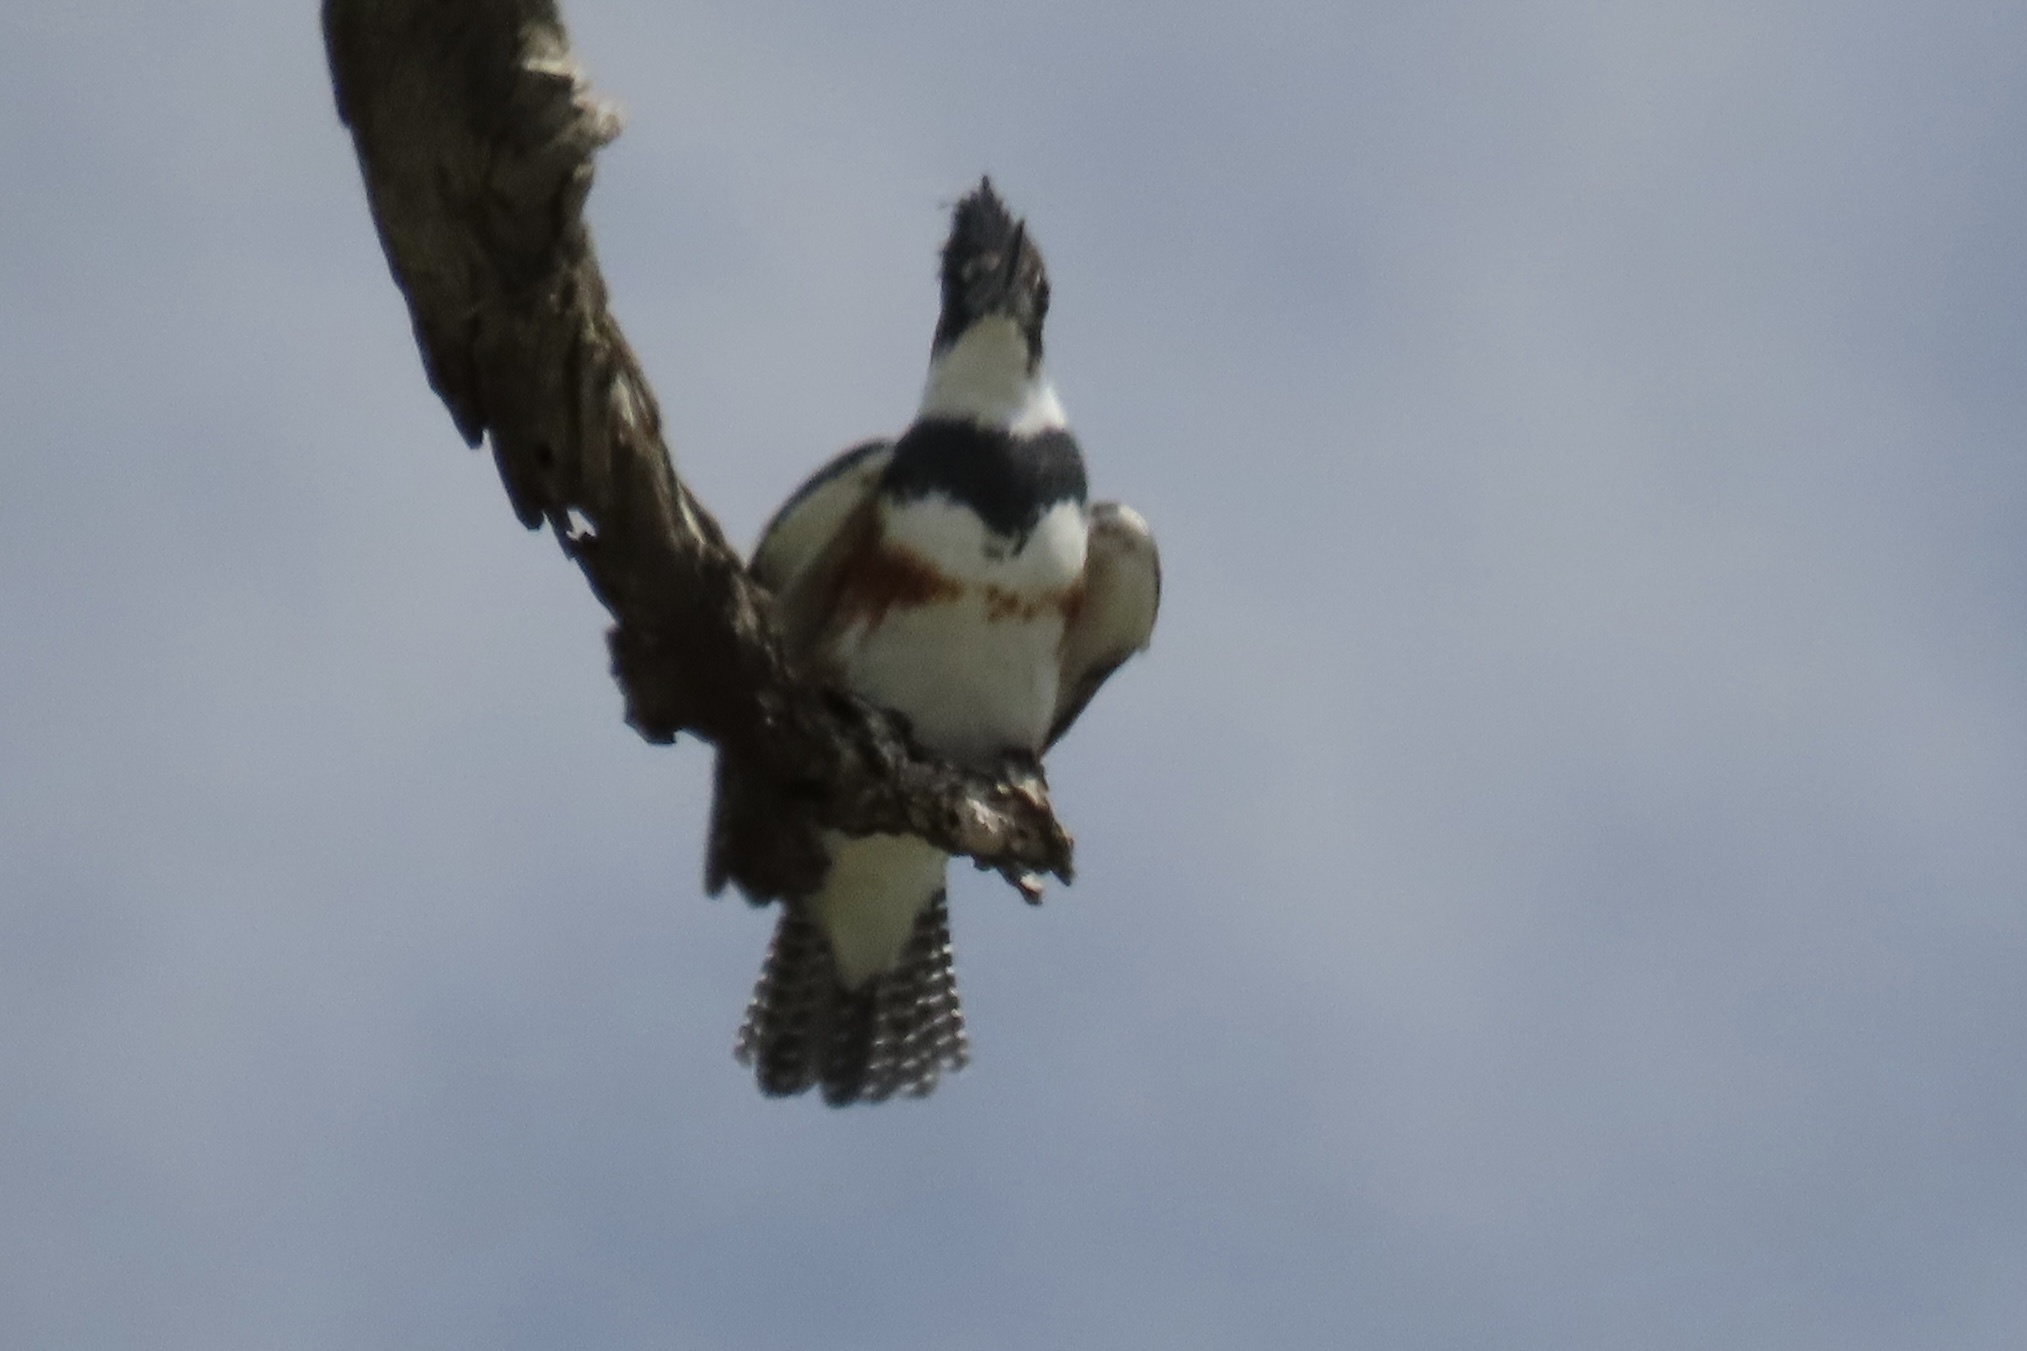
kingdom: Animalia
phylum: Chordata
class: Aves
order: Coraciiformes
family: Alcedinidae
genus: Megaceryle
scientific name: Megaceryle alcyon
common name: Belted kingfisher
